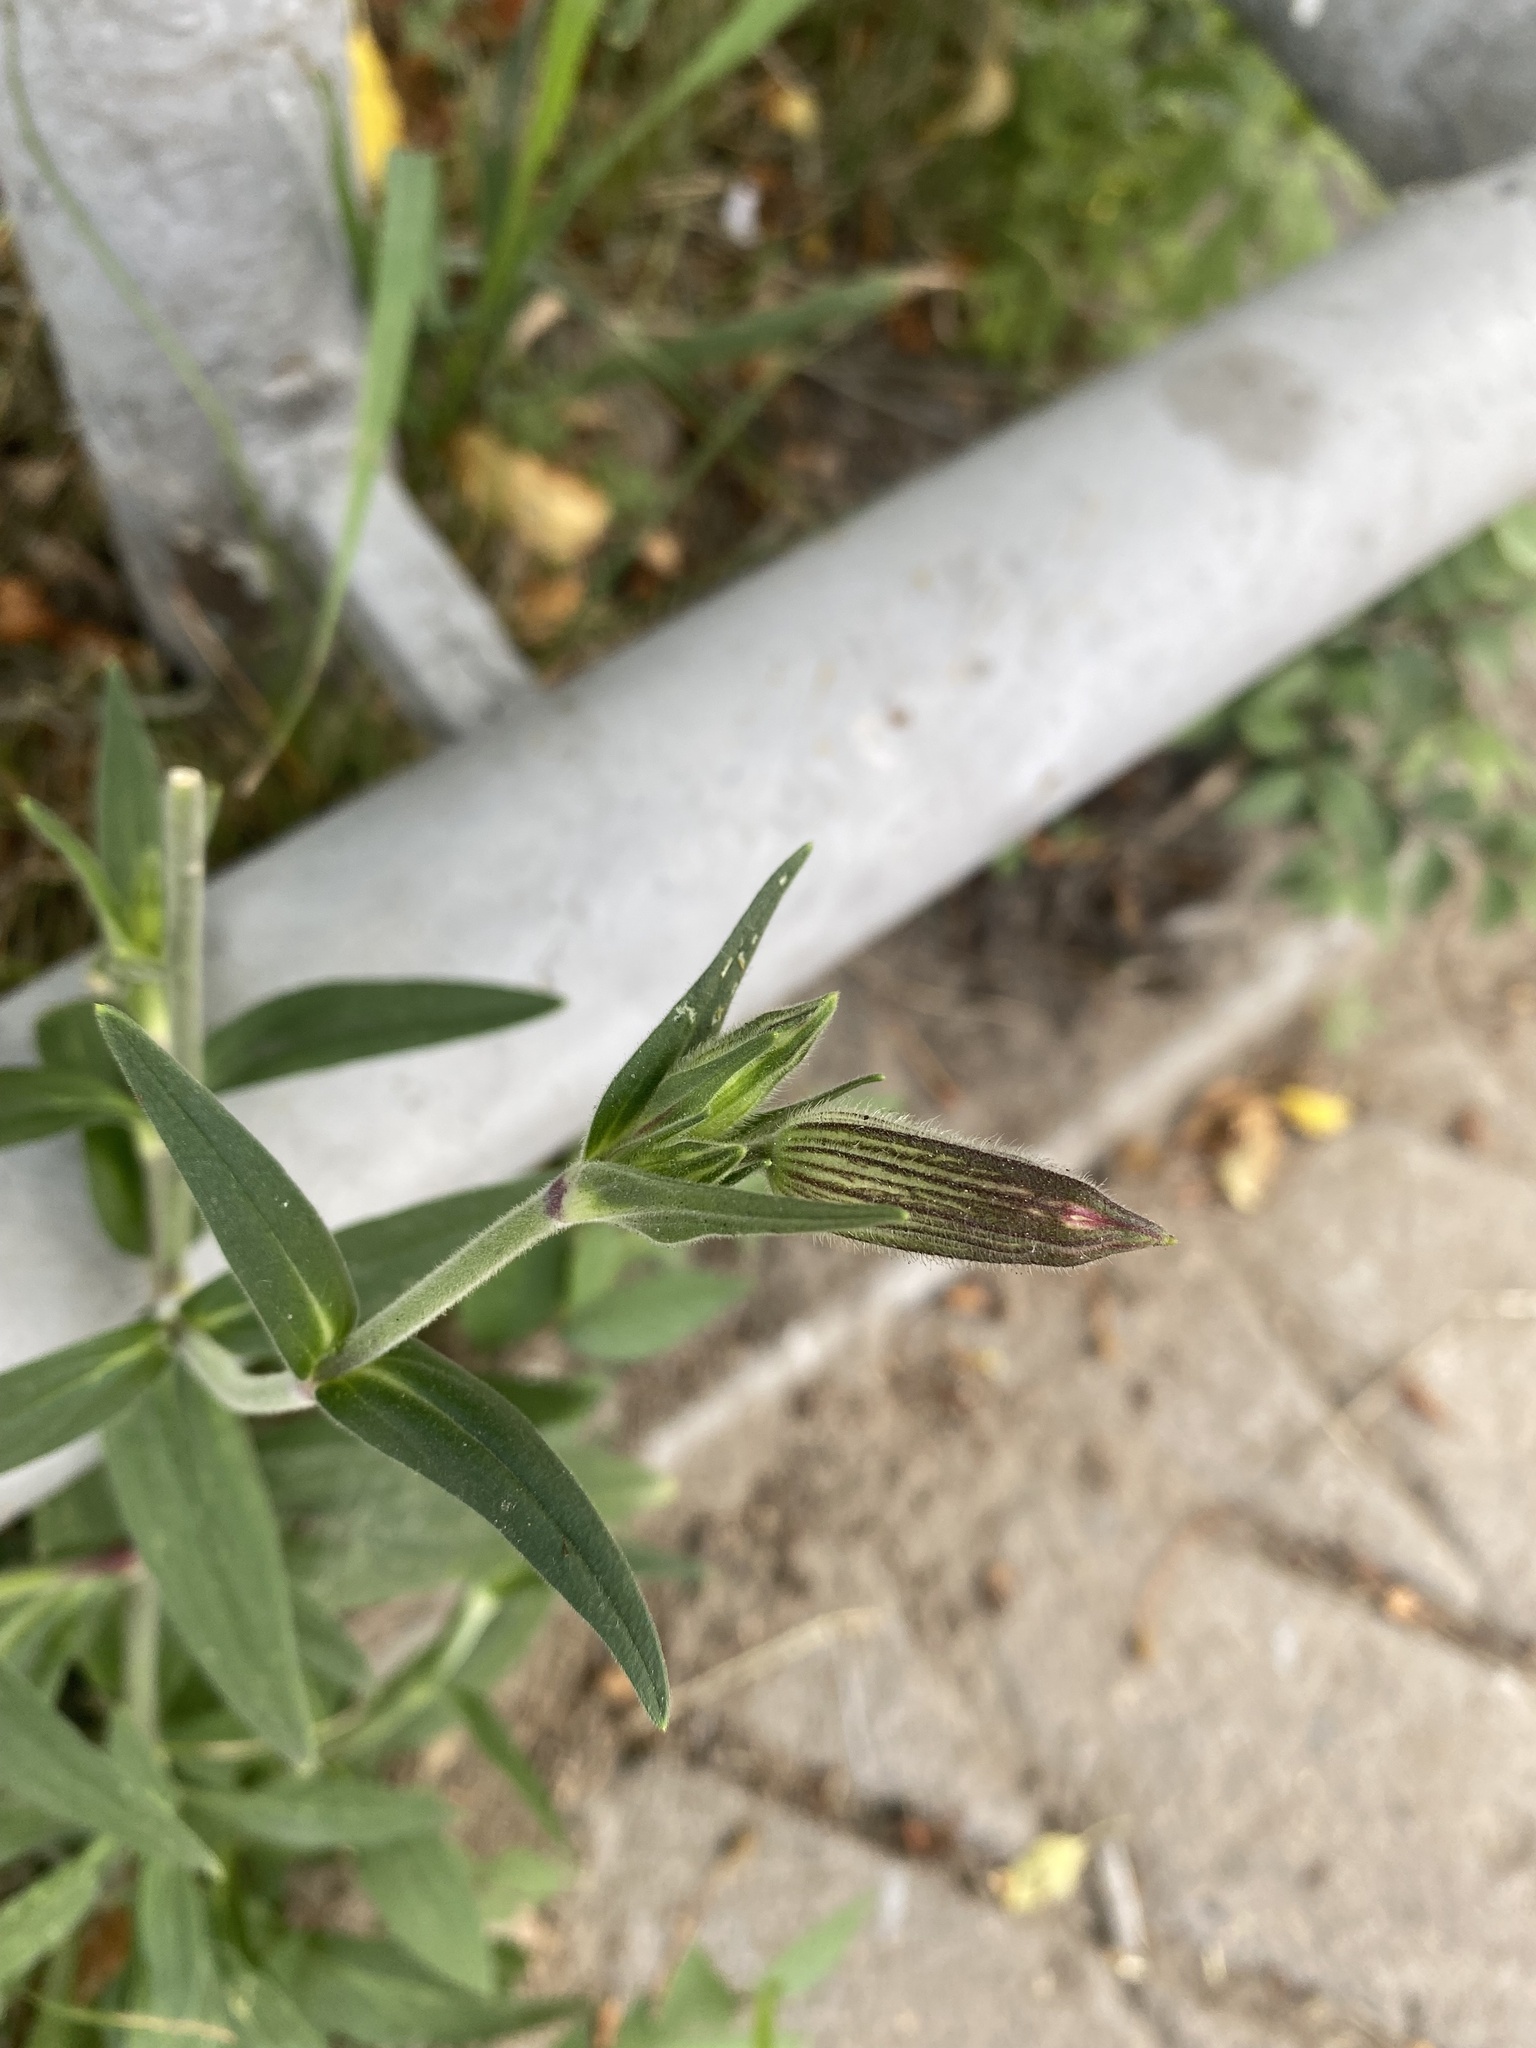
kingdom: Plantae
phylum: Tracheophyta
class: Magnoliopsida
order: Caryophyllales
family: Caryophyllaceae
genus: Silene
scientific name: Silene latifolia
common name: White campion
